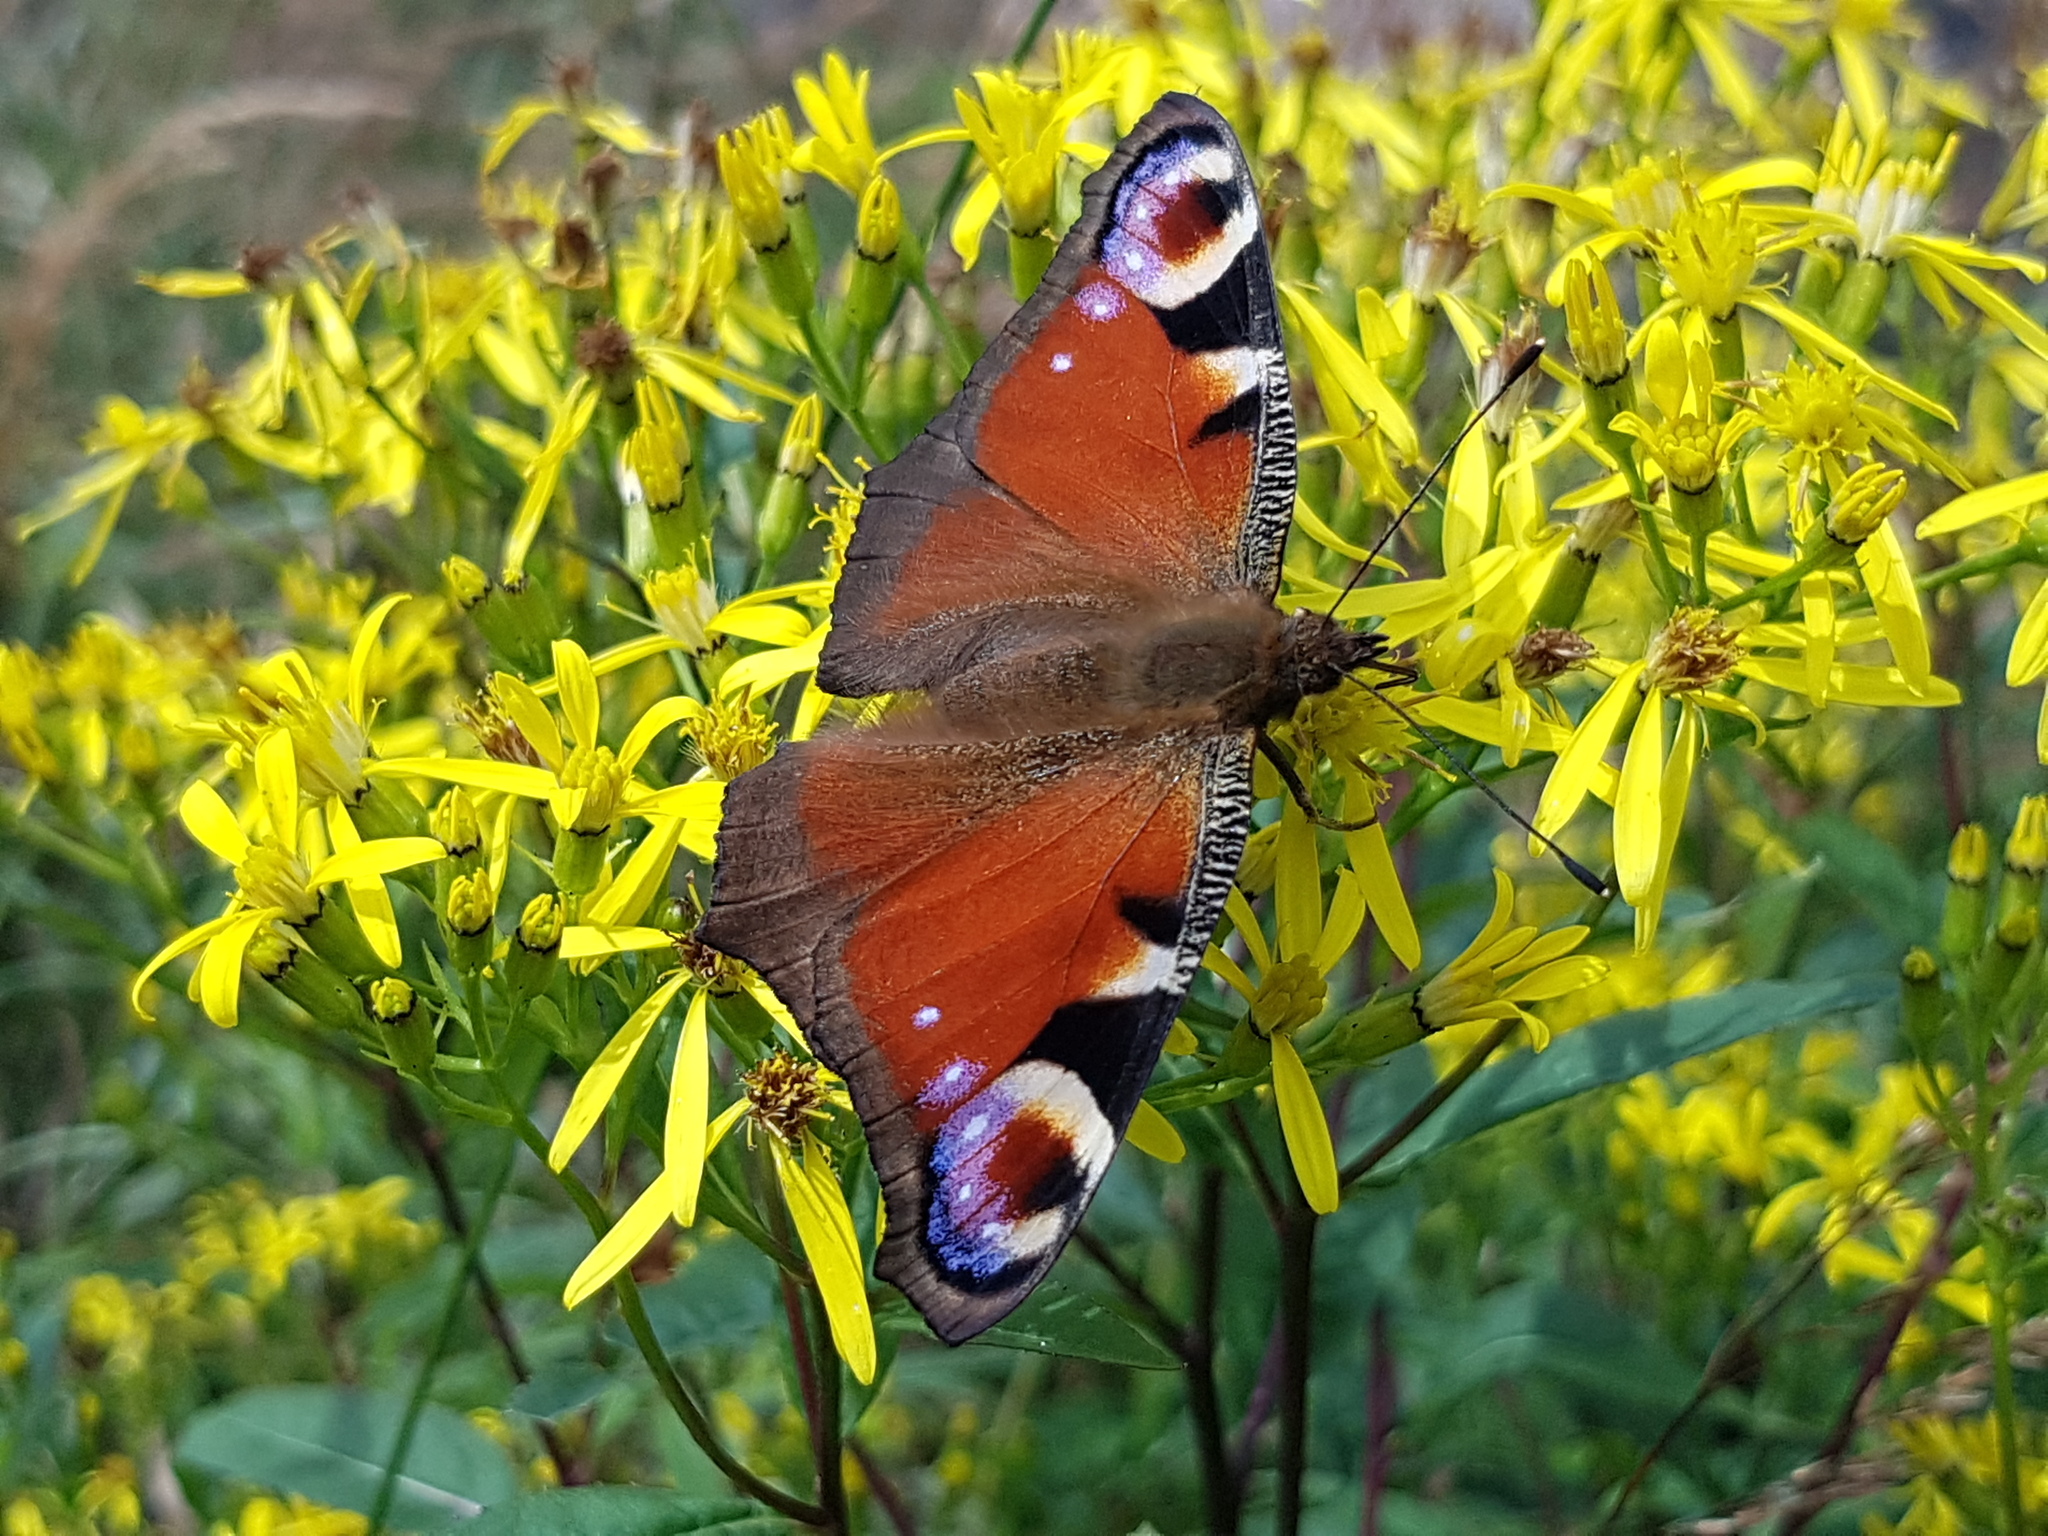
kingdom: Animalia
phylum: Arthropoda
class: Insecta
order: Lepidoptera
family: Nymphalidae
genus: Aglais
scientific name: Aglais io
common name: Peacock
